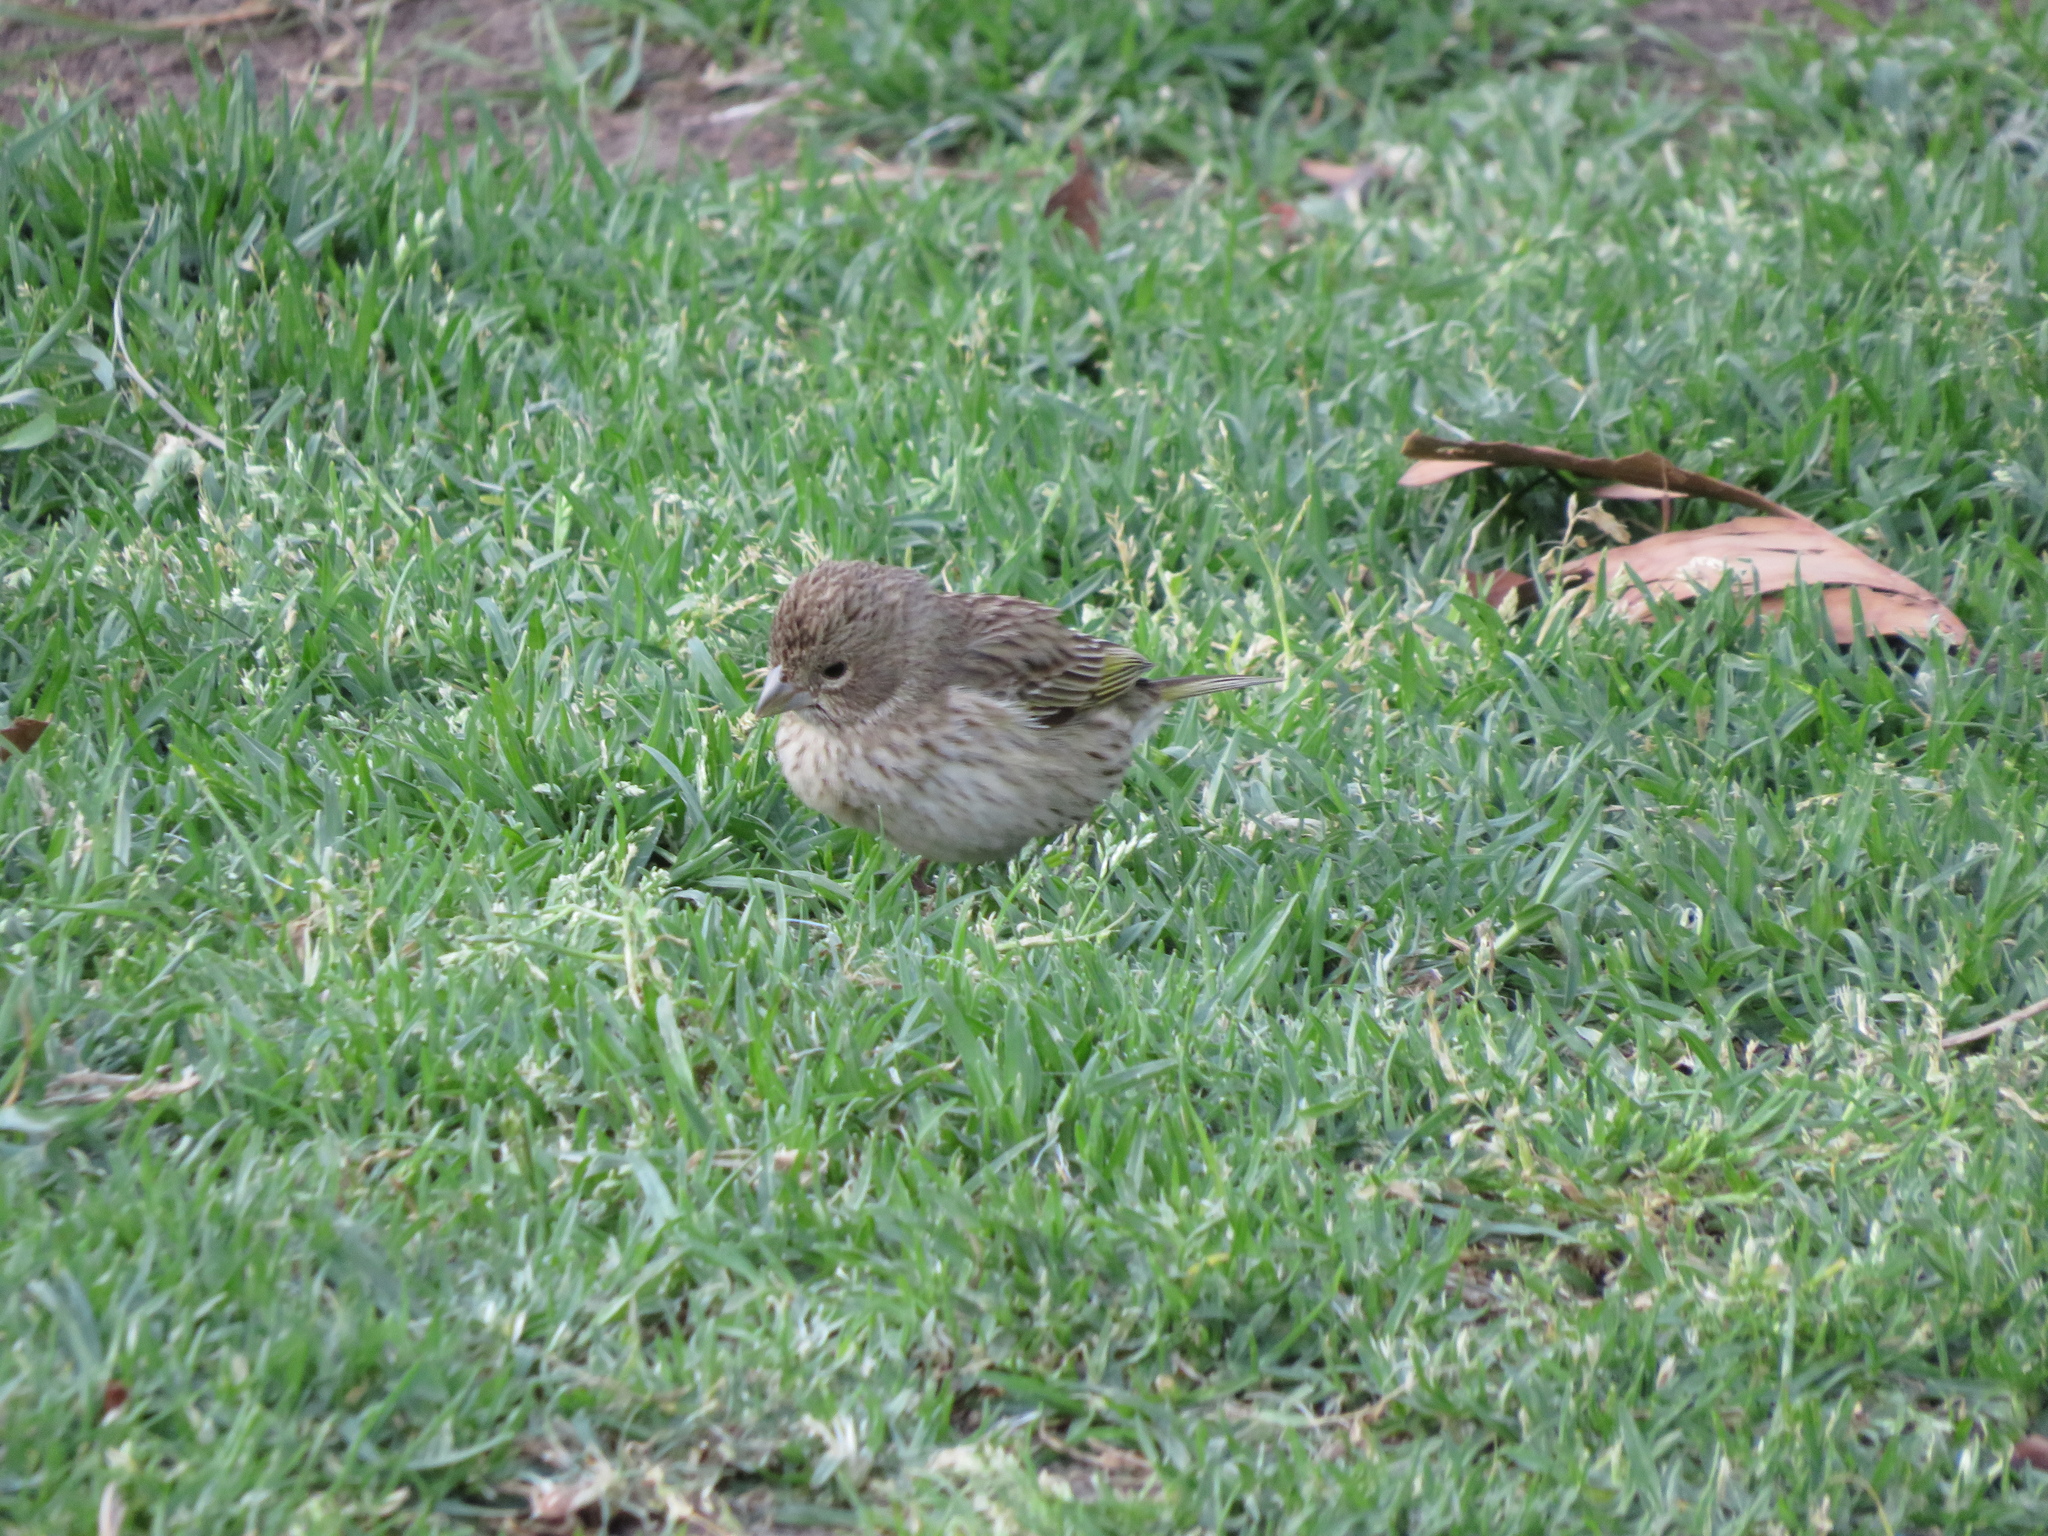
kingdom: Animalia
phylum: Chordata
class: Aves
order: Passeriformes
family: Thraupidae
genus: Sicalis
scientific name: Sicalis flaveola
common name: Saffron finch
